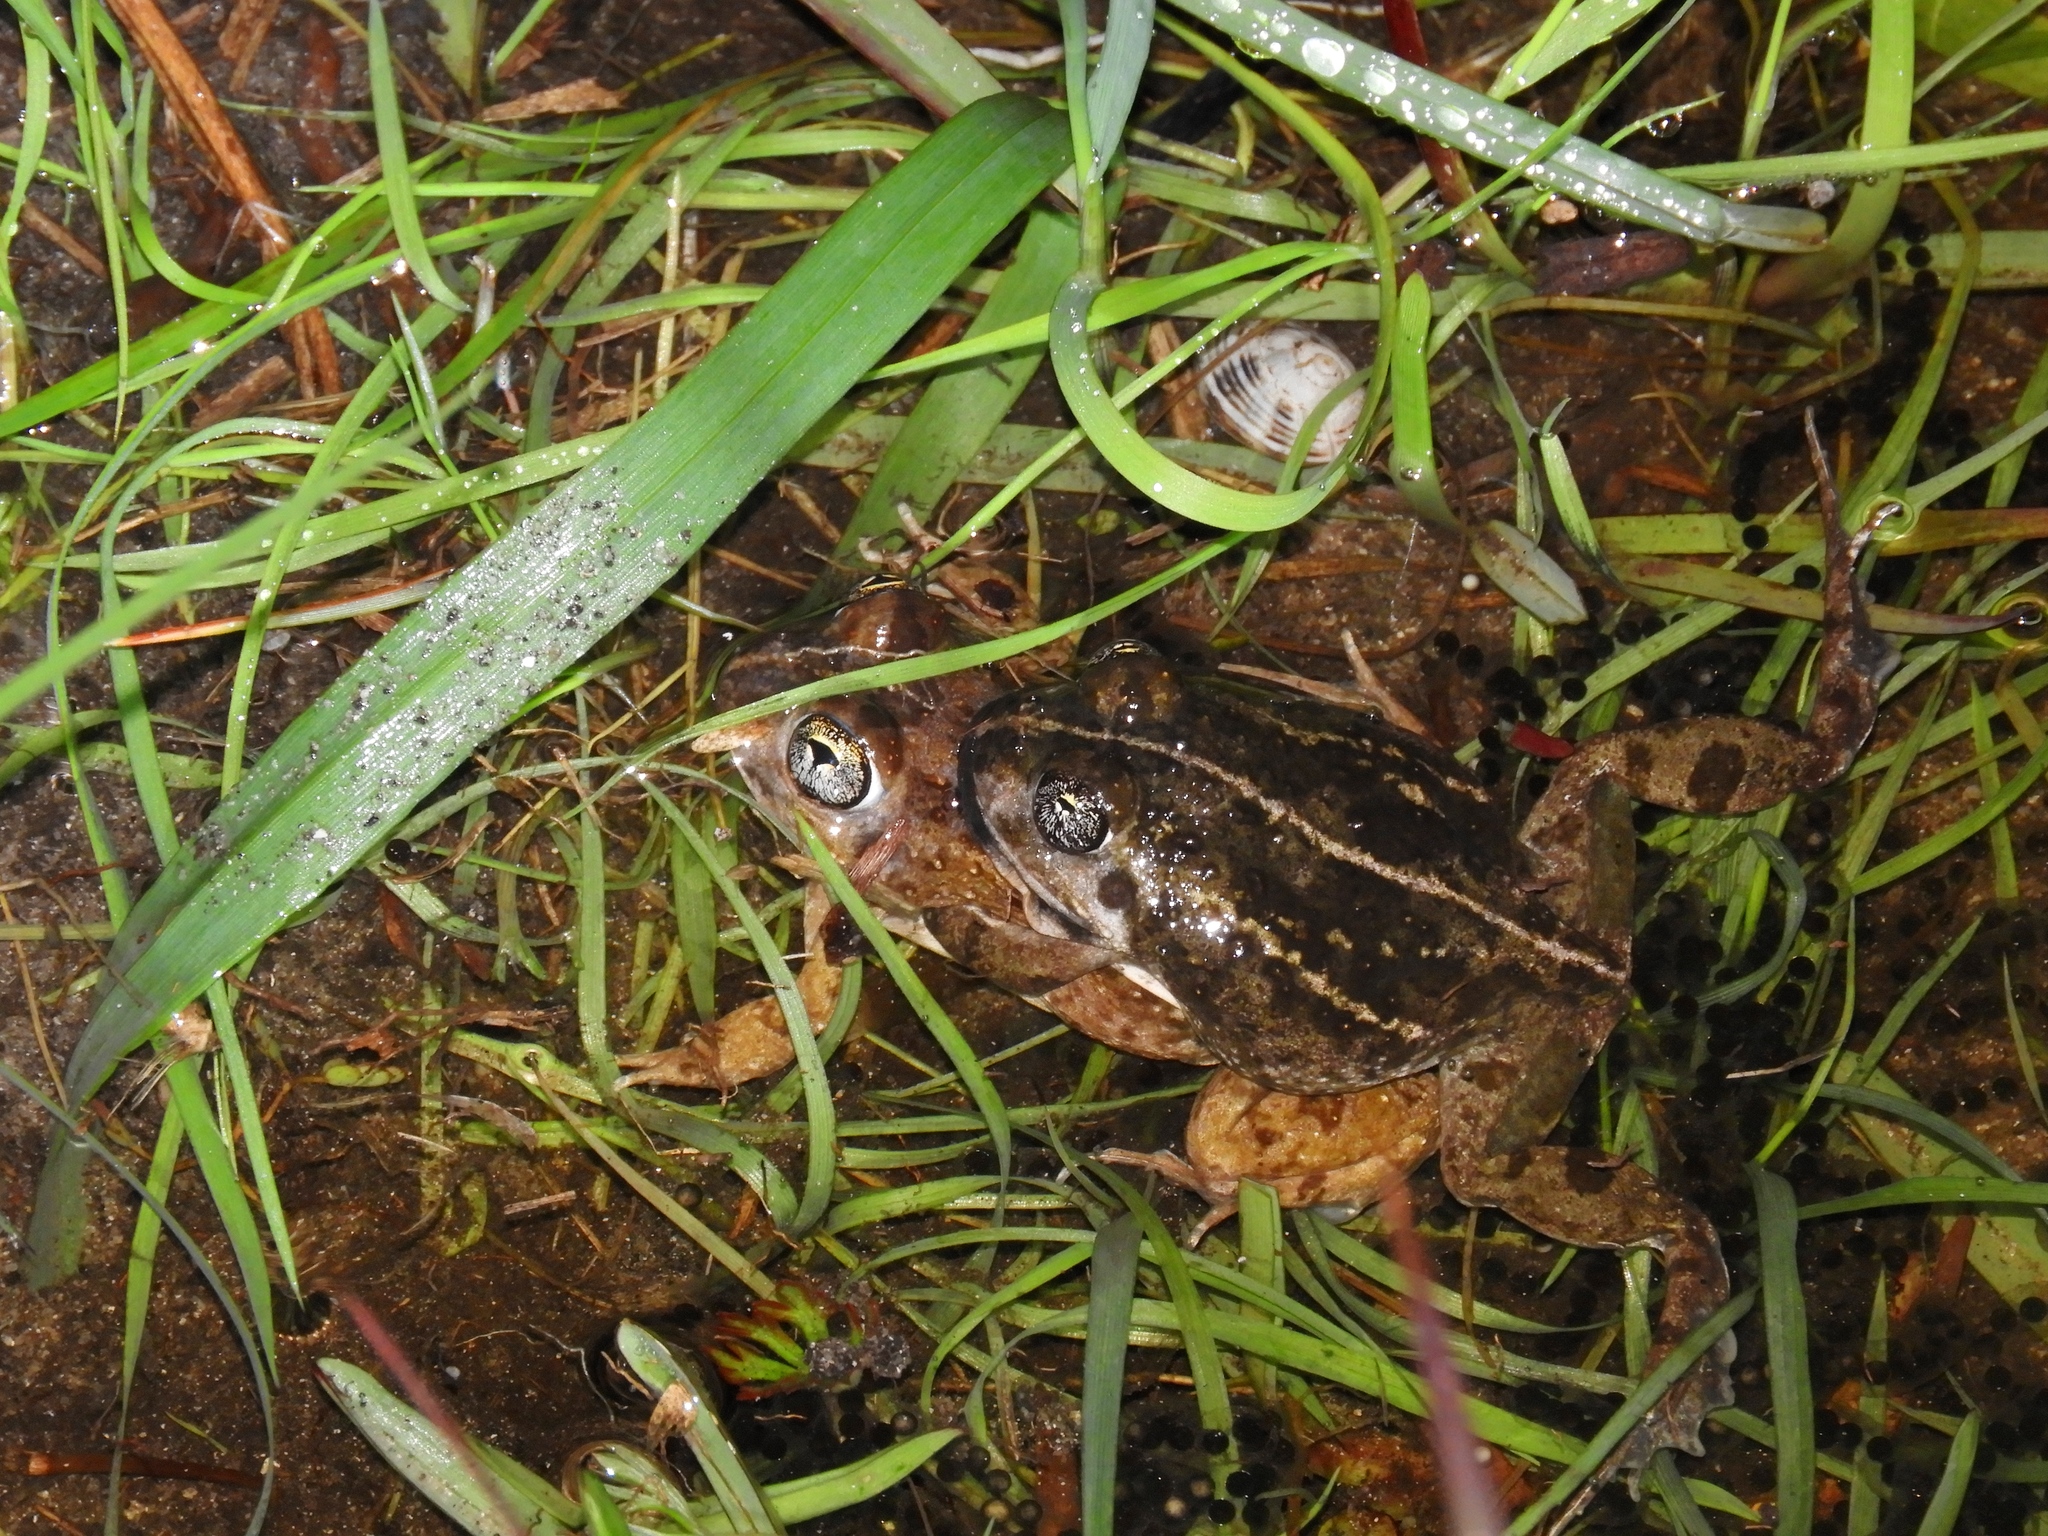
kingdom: Animalia
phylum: Chordata
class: Amphibia
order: Anura
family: Pyxicephalidae
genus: Tomopterna
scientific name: Tomopterna delalandii
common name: Delalande's burrowing bullfrog
